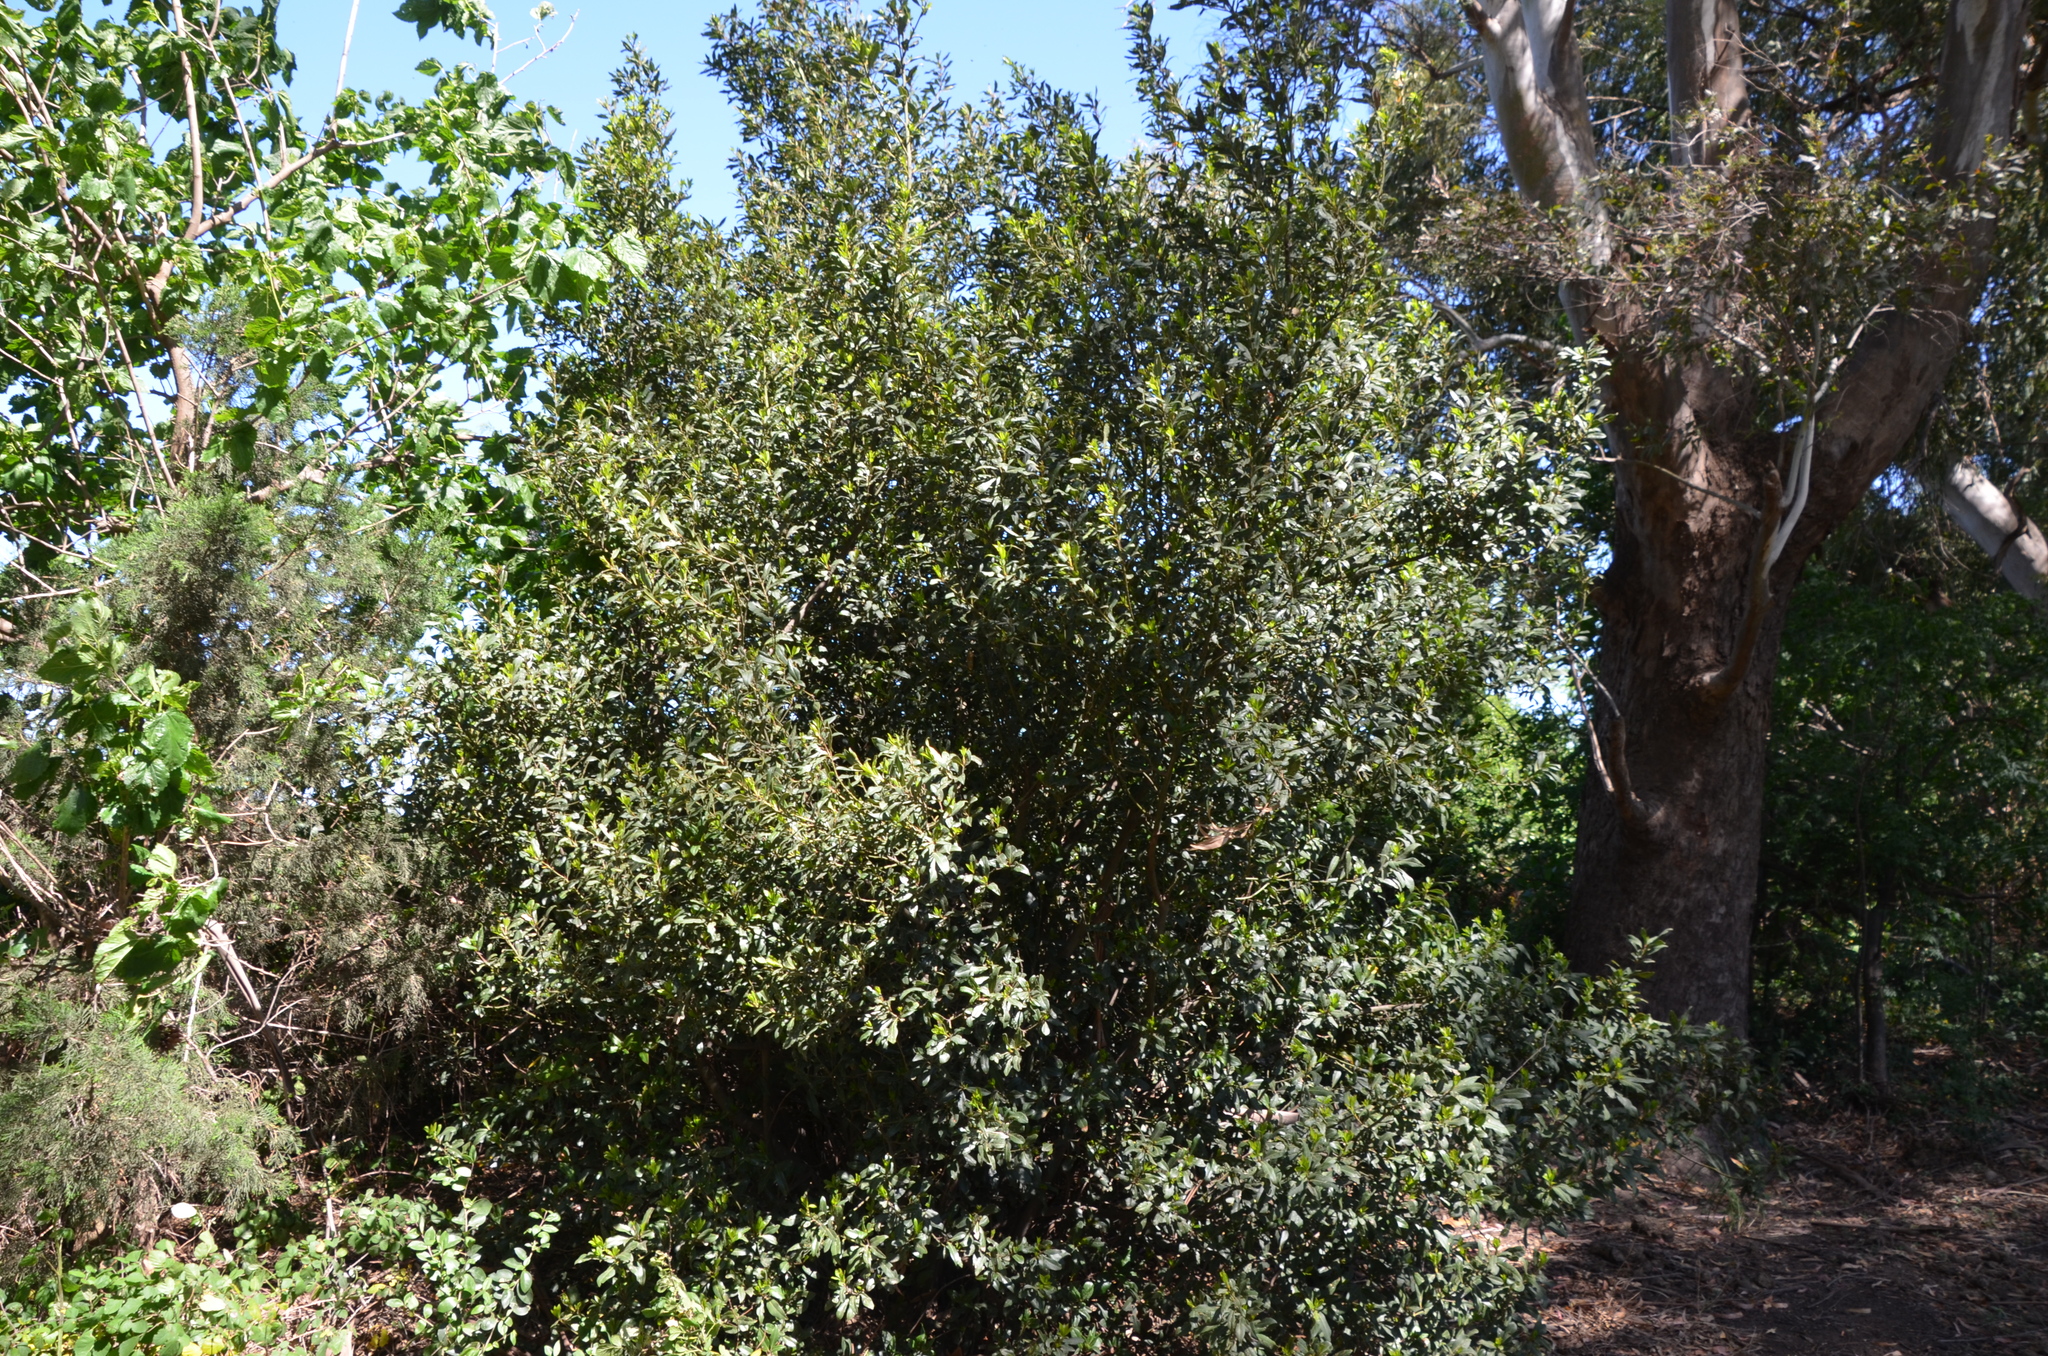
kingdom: Plantae
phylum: Tracheophyta
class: Magnoliopsida
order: Laurales
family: Lauraceae
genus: Laurus
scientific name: Laurus nobilis
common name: Bay
